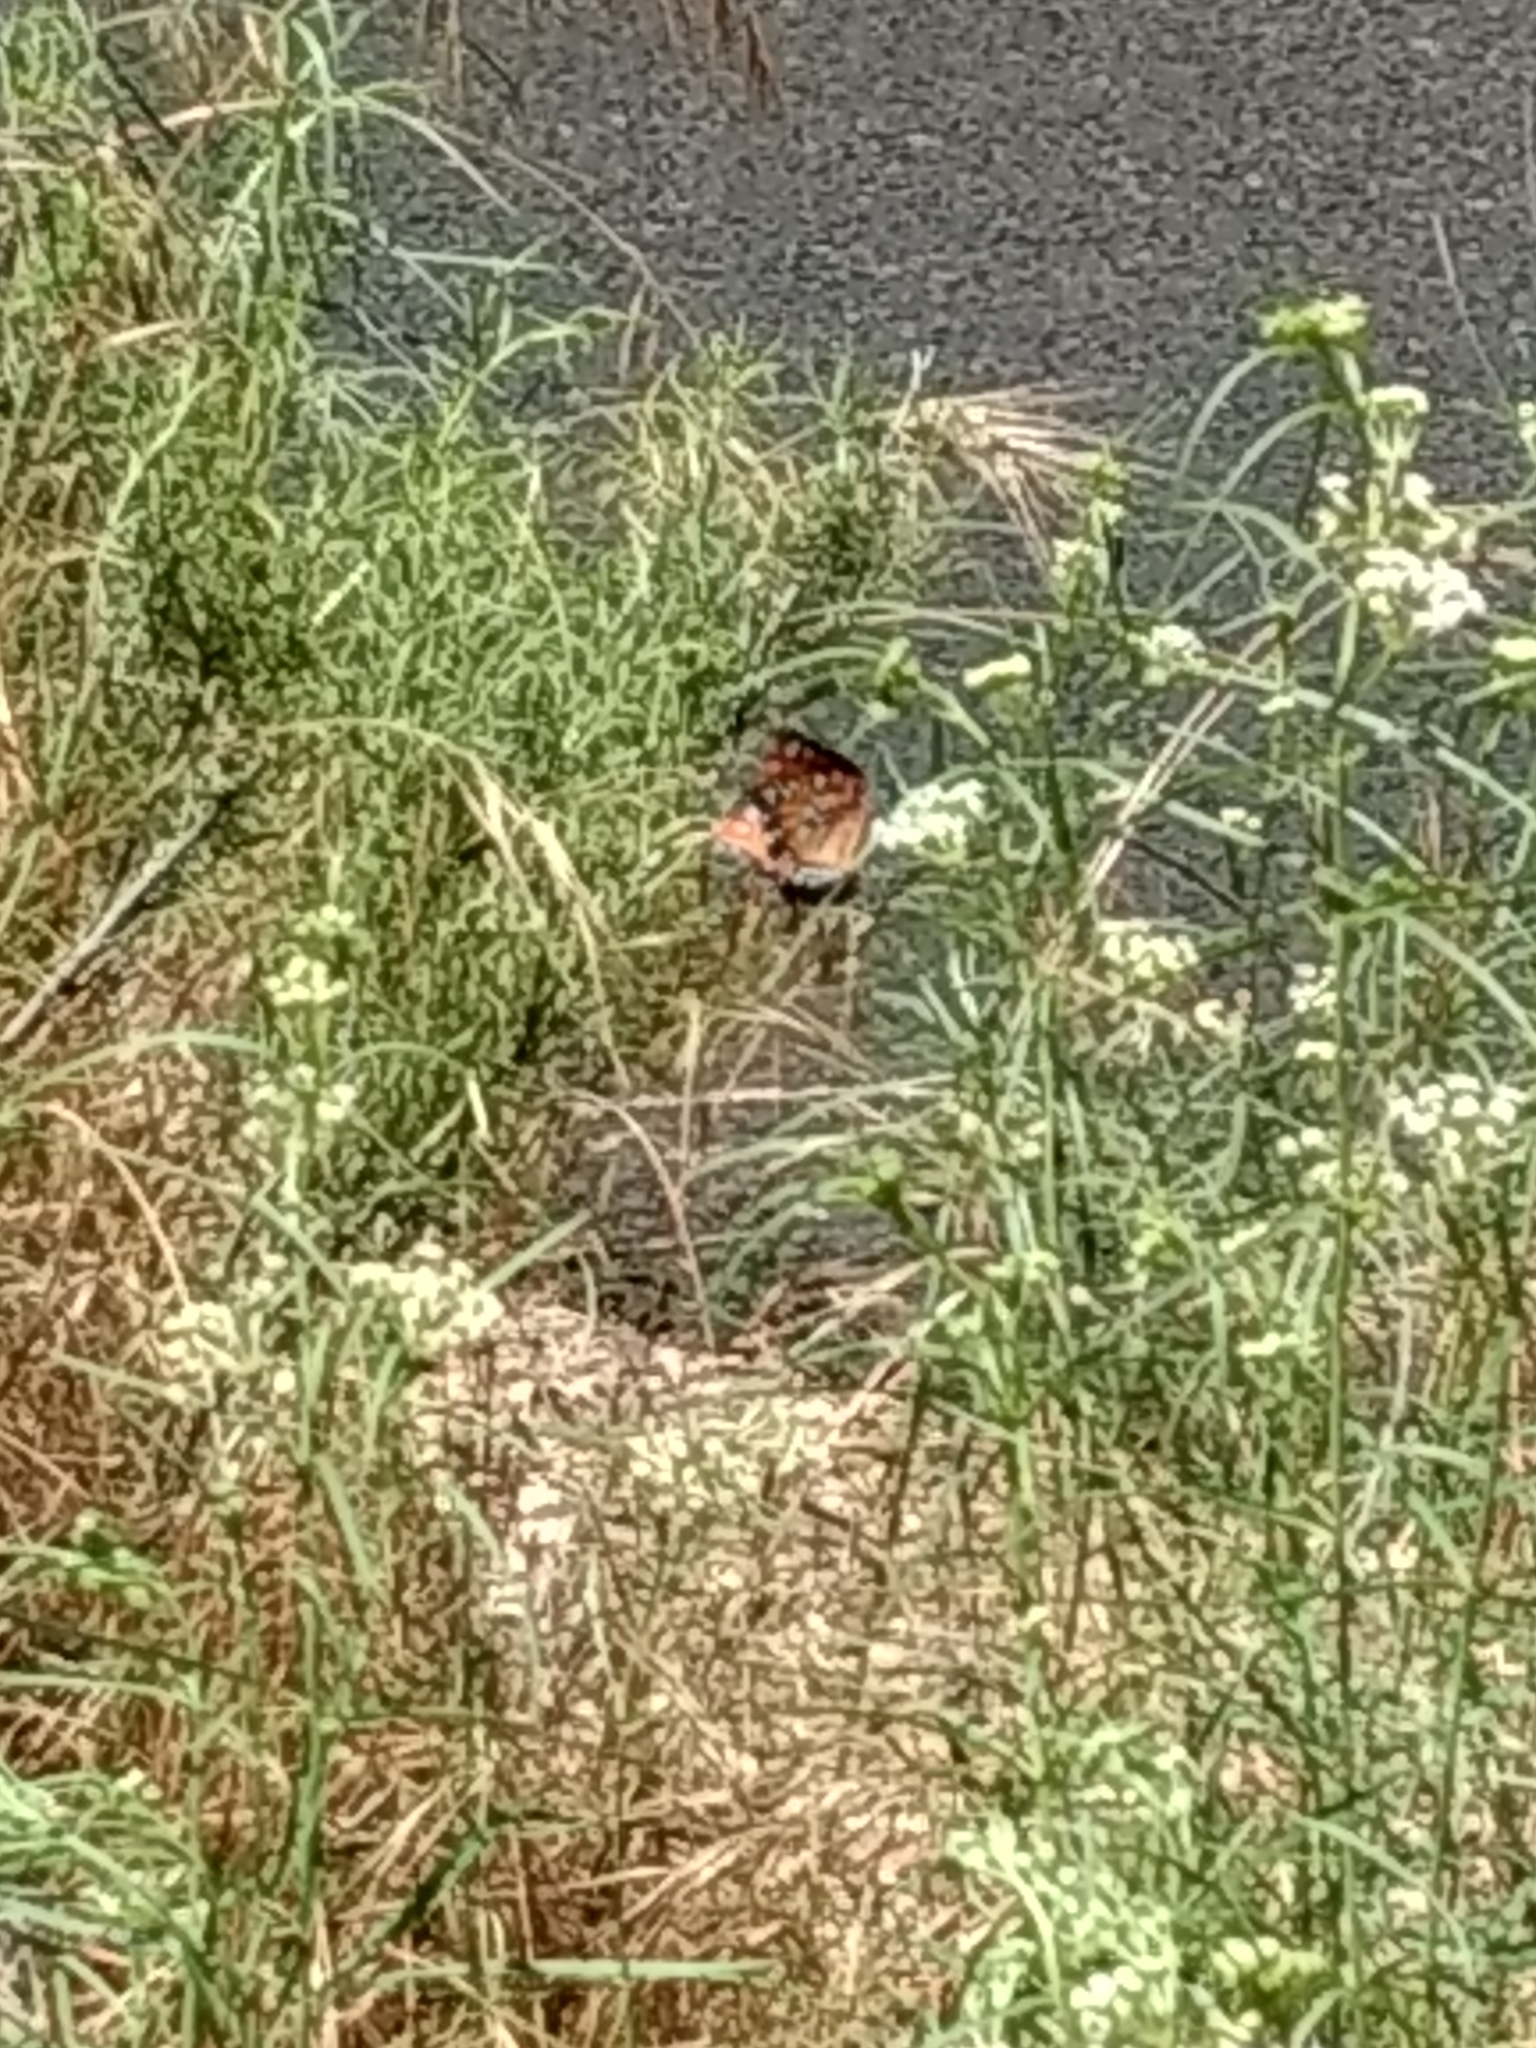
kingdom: Animalia
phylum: Arthropoda
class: Insecta
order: Lepidoptera
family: Nymphalidae
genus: Danaus
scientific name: Danaus gilippus
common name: Queen
